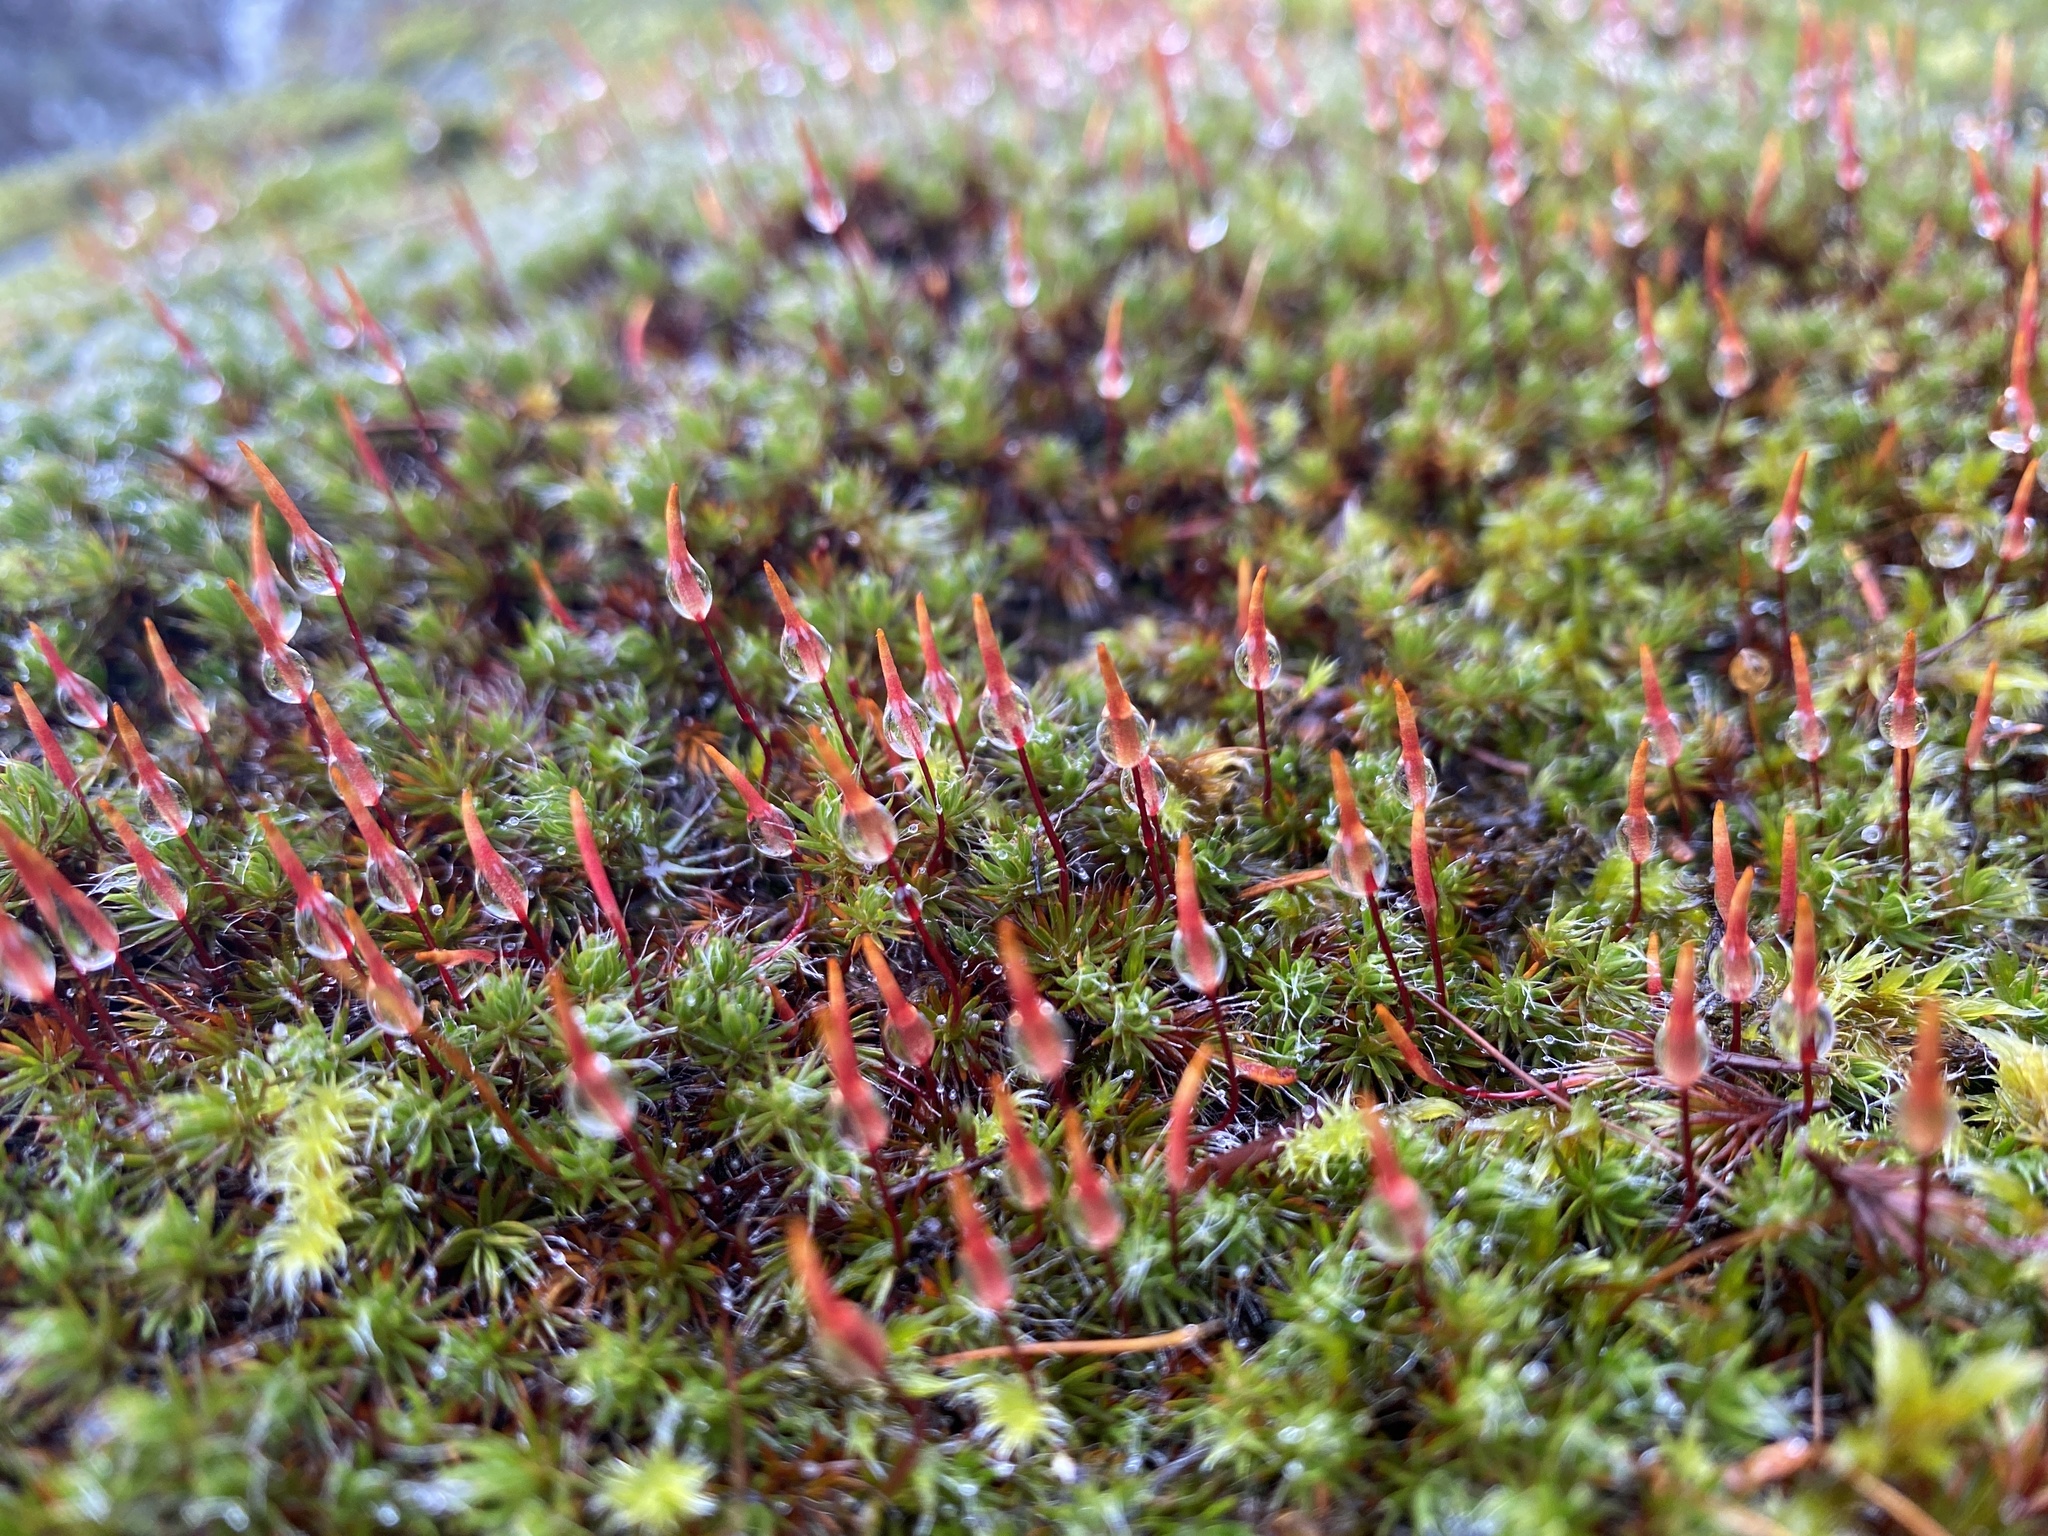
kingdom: Plantae
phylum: Bryophyta
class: Polytrichopsida
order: Polytrichales
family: Polytrichaceae
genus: Polytrichum
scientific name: Polytrichum piliferum
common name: Bristly haircap
